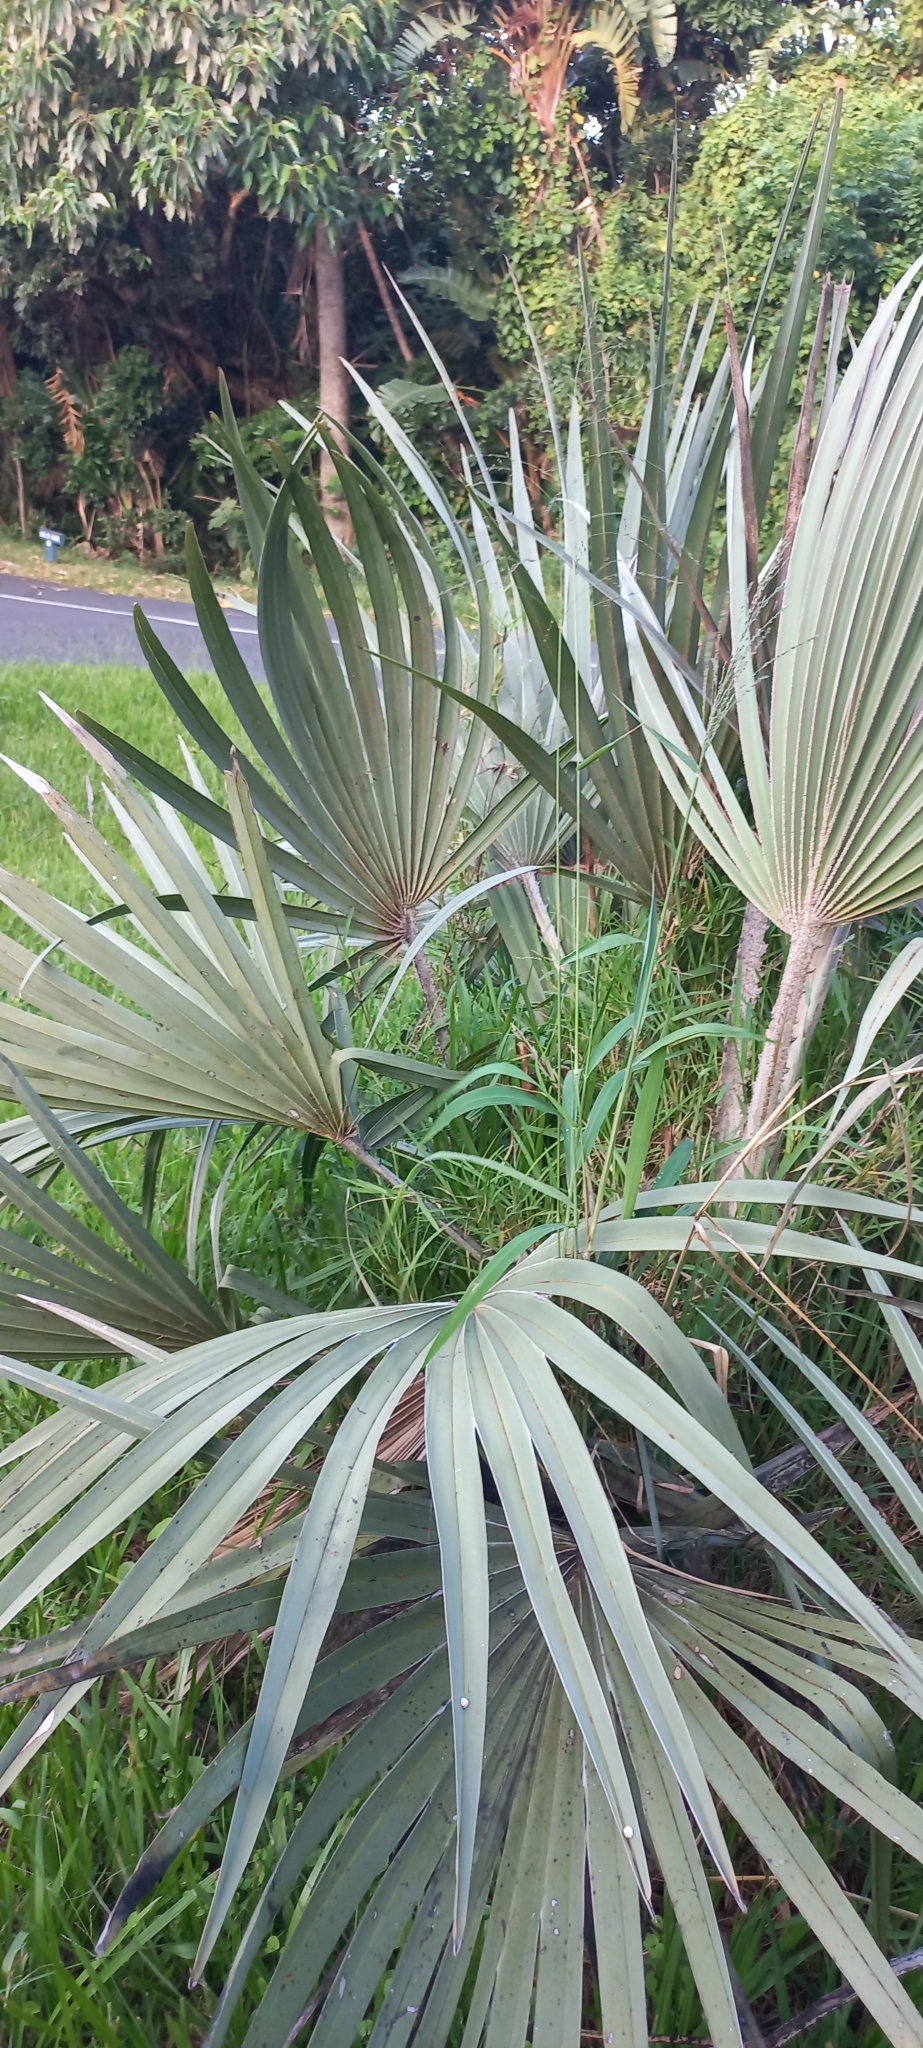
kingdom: Plantae
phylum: Tracheophyta
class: Liliopsida
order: Arecales
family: Arecaceae
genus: Hyphaene
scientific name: Hyphaene coriacea
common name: Ilala palm
